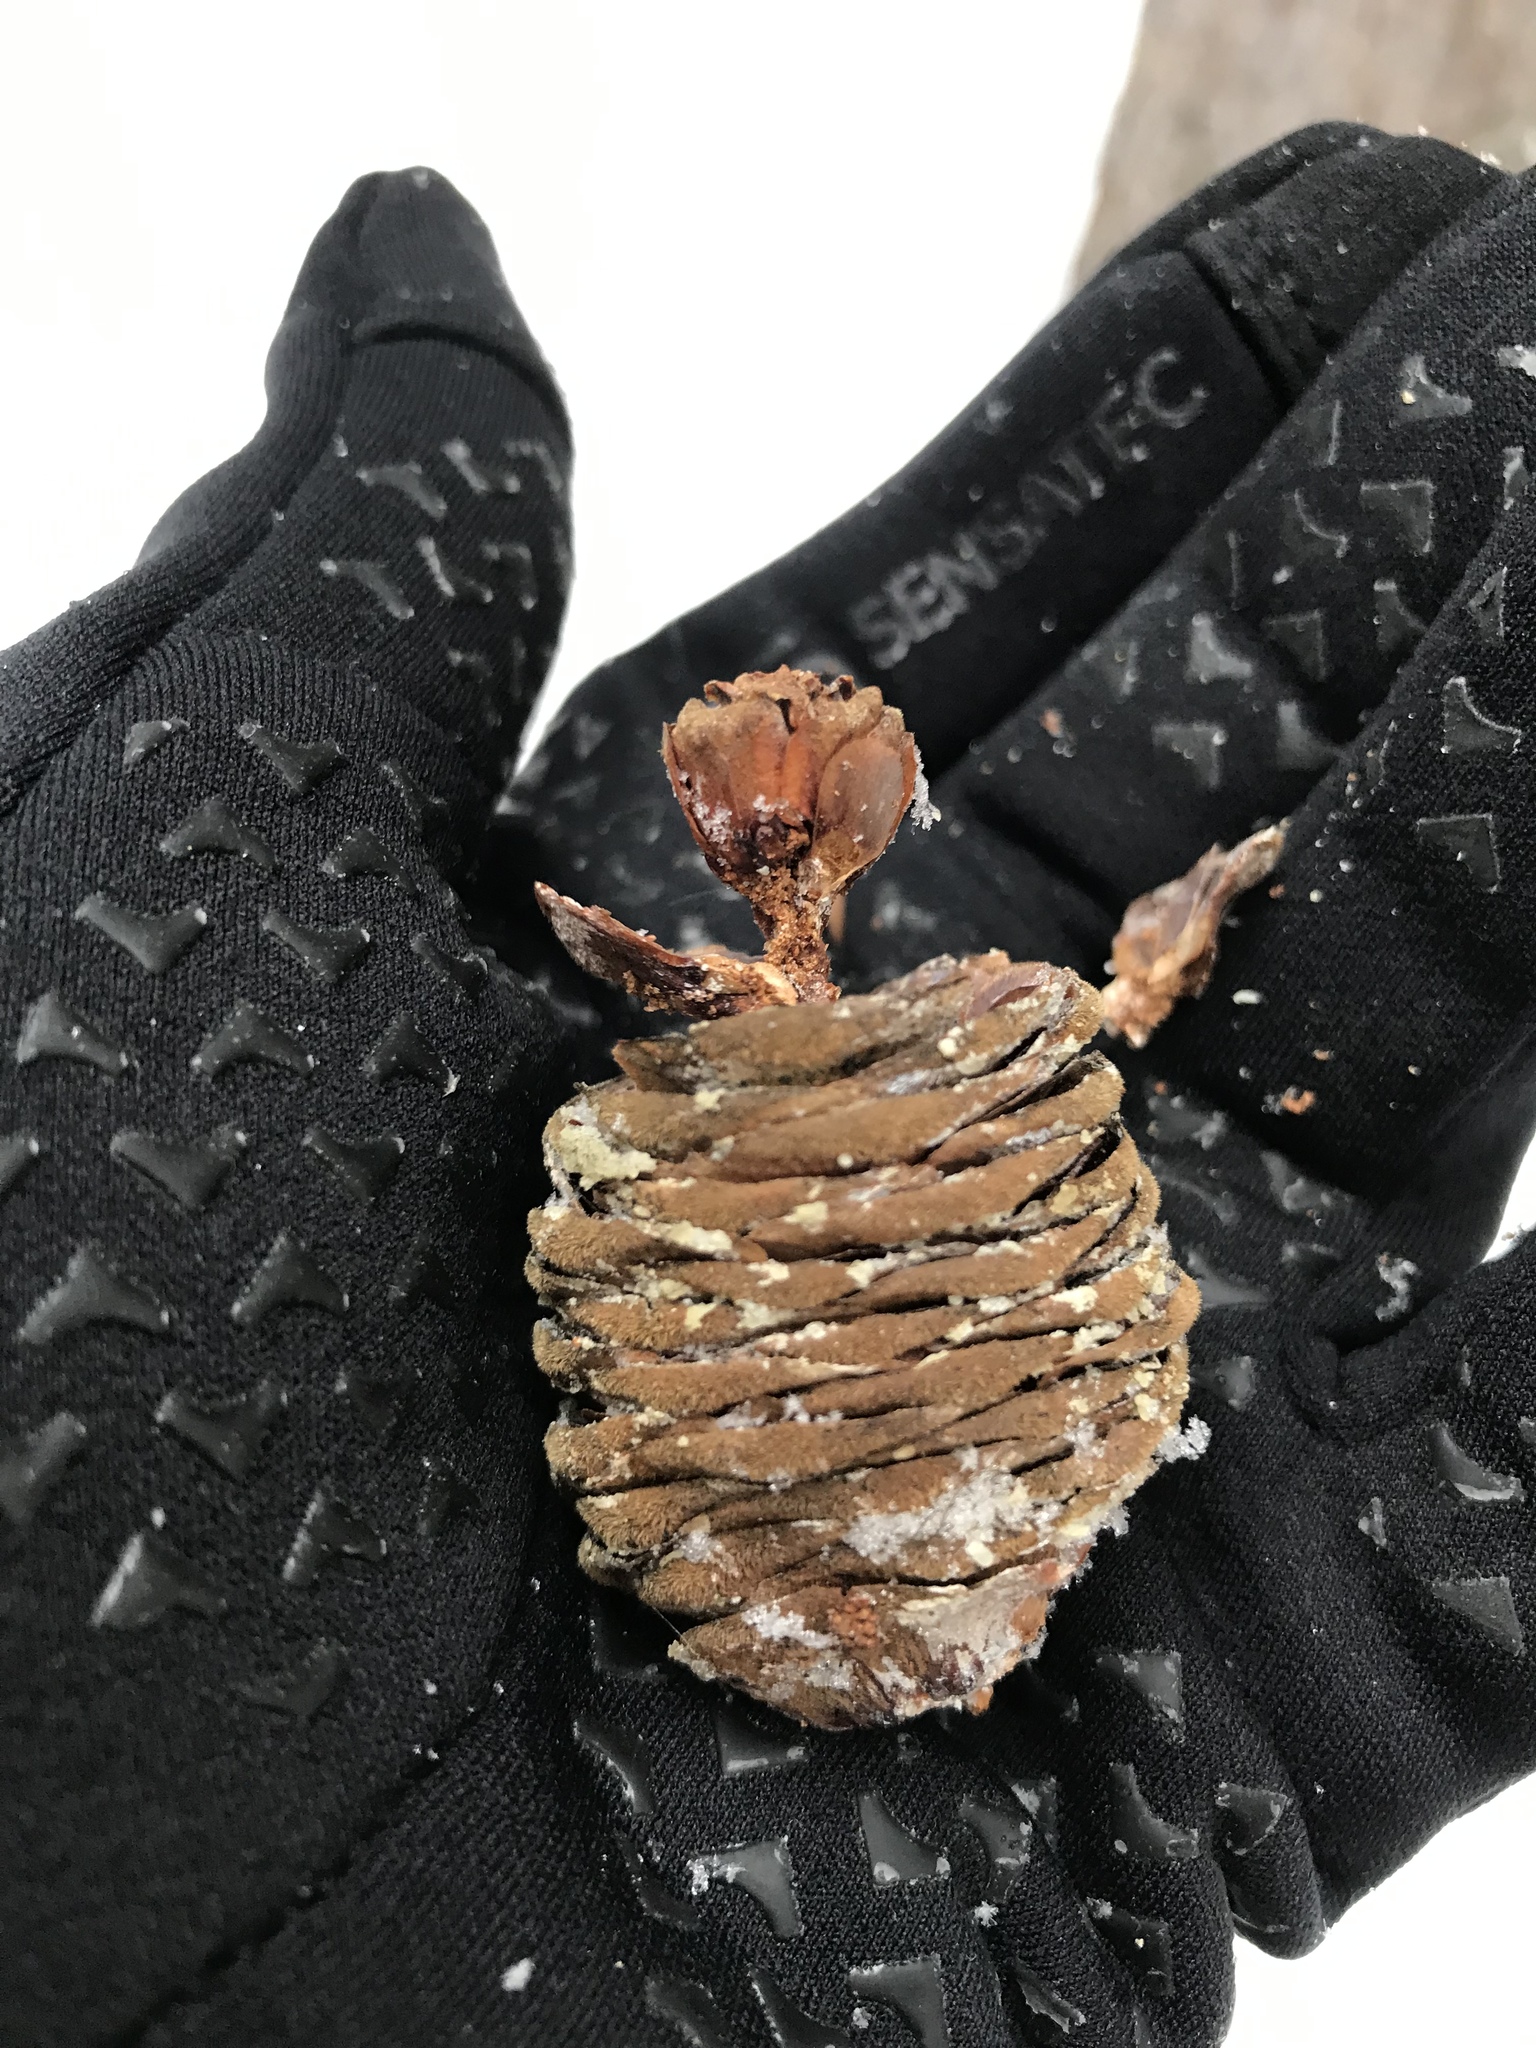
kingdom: Plantae
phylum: Tracheophyta
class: Pinopsida
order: Pinales
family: Pinaceae
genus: Abies
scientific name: Abies lasiocarpa
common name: Subalpine fir
